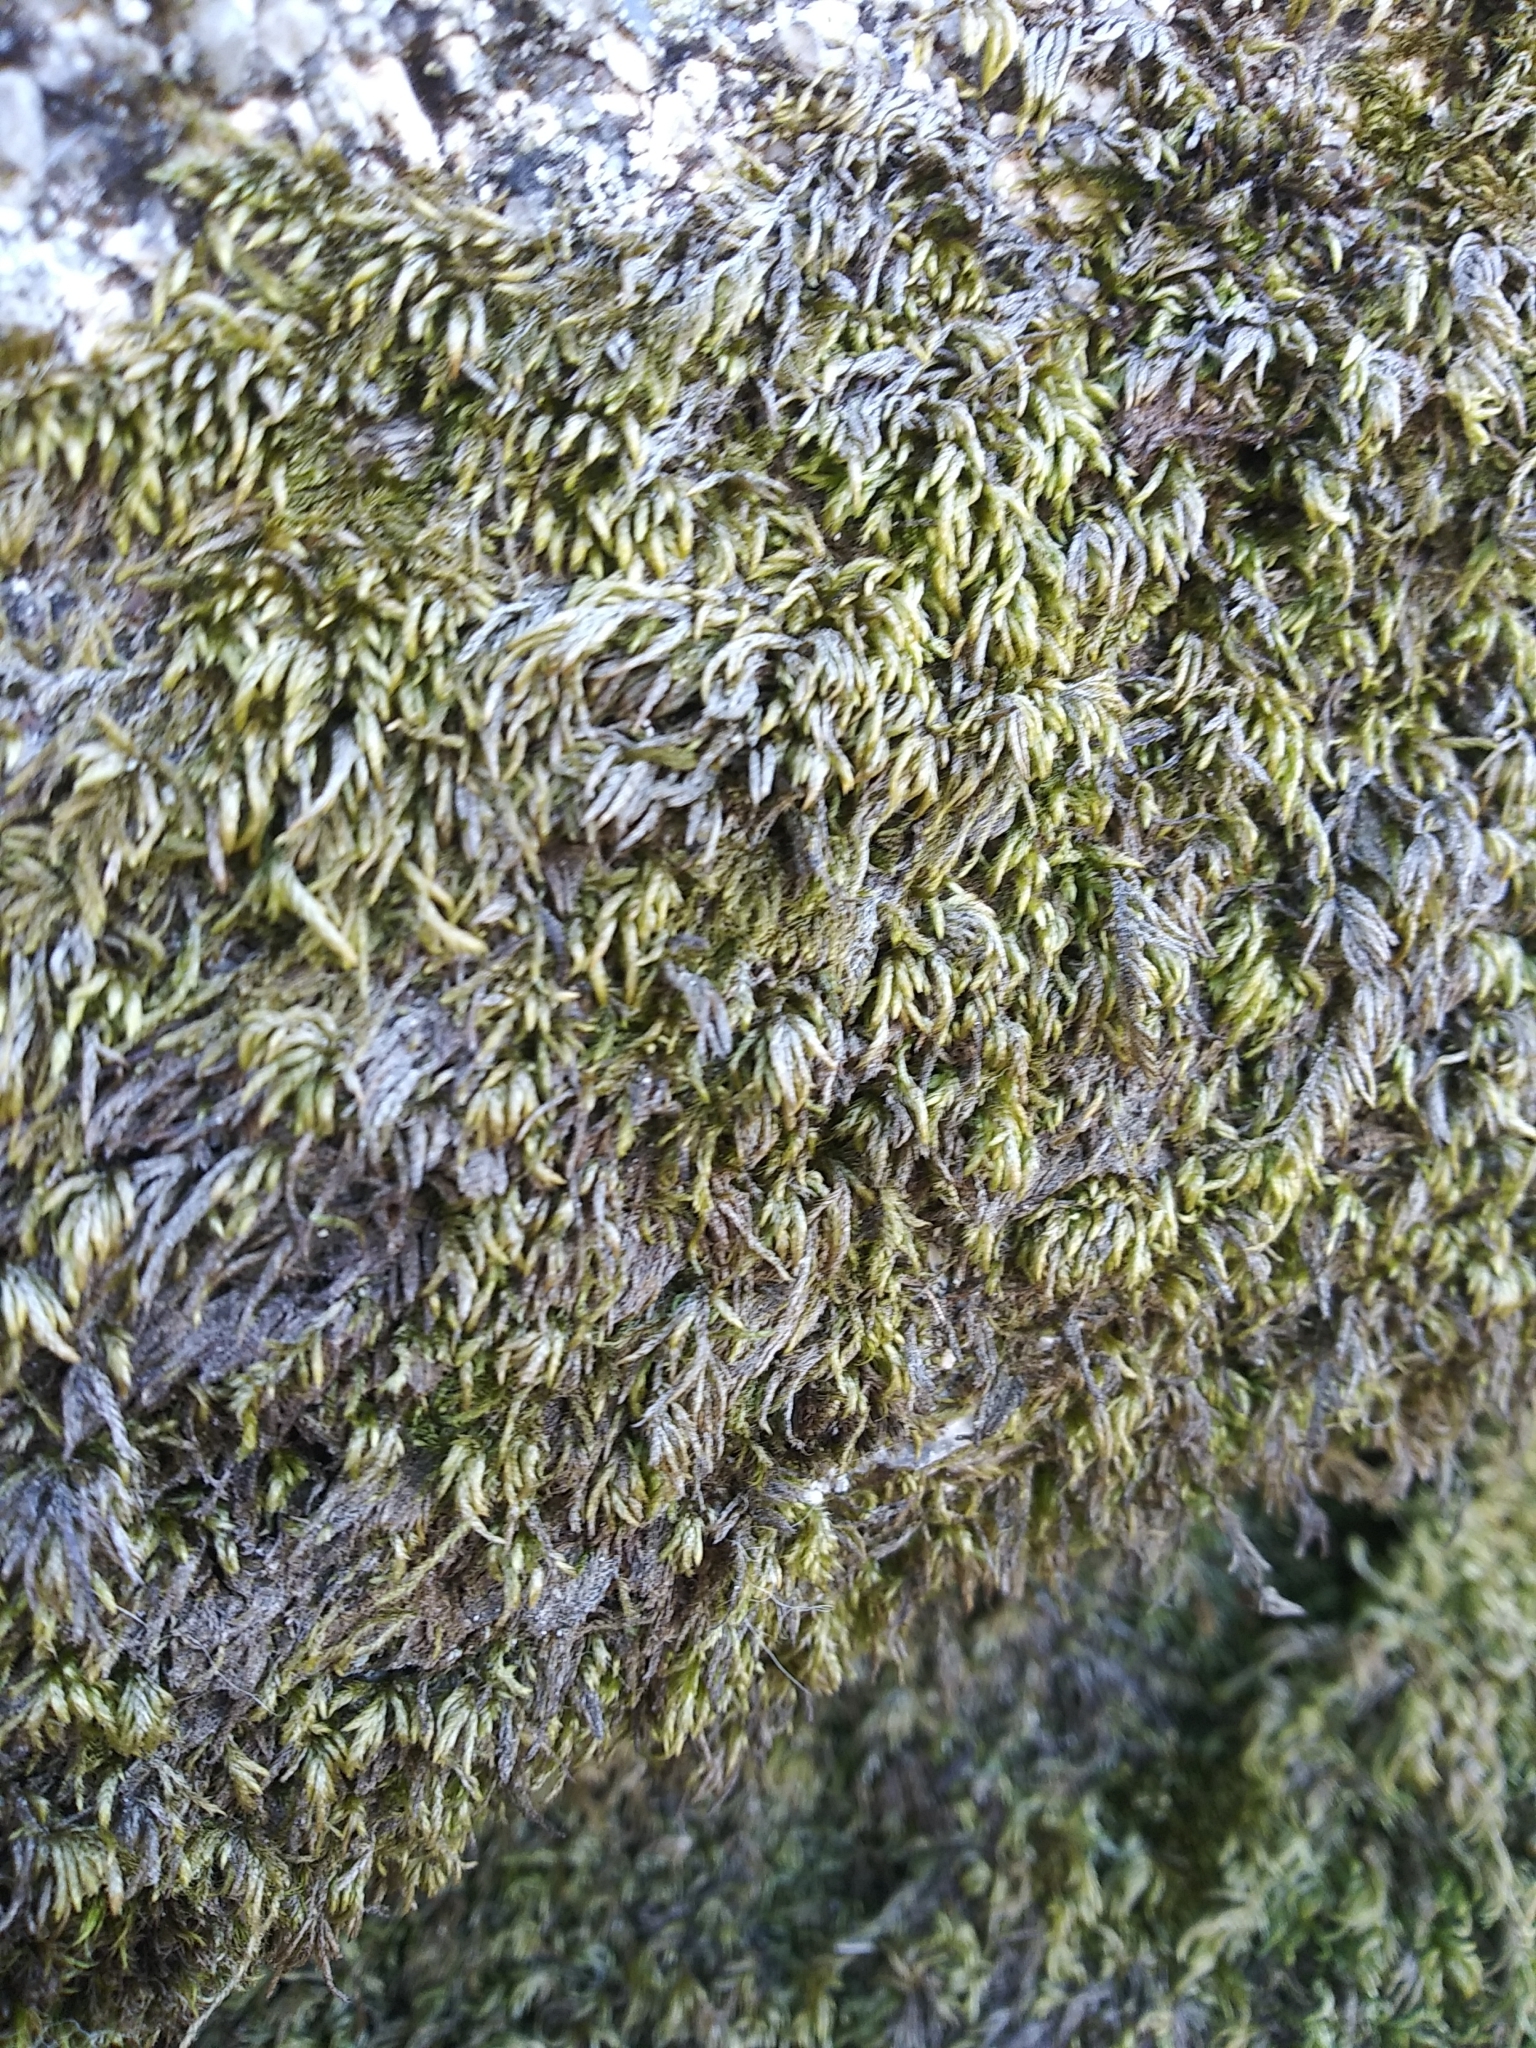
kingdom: Plantae
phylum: Bryophyta
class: Bryopsida
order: Hypnales
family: Lembophyllaceae
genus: Nogopterium
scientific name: Nogopterium gracile
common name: Bird's-foot wing-moss
